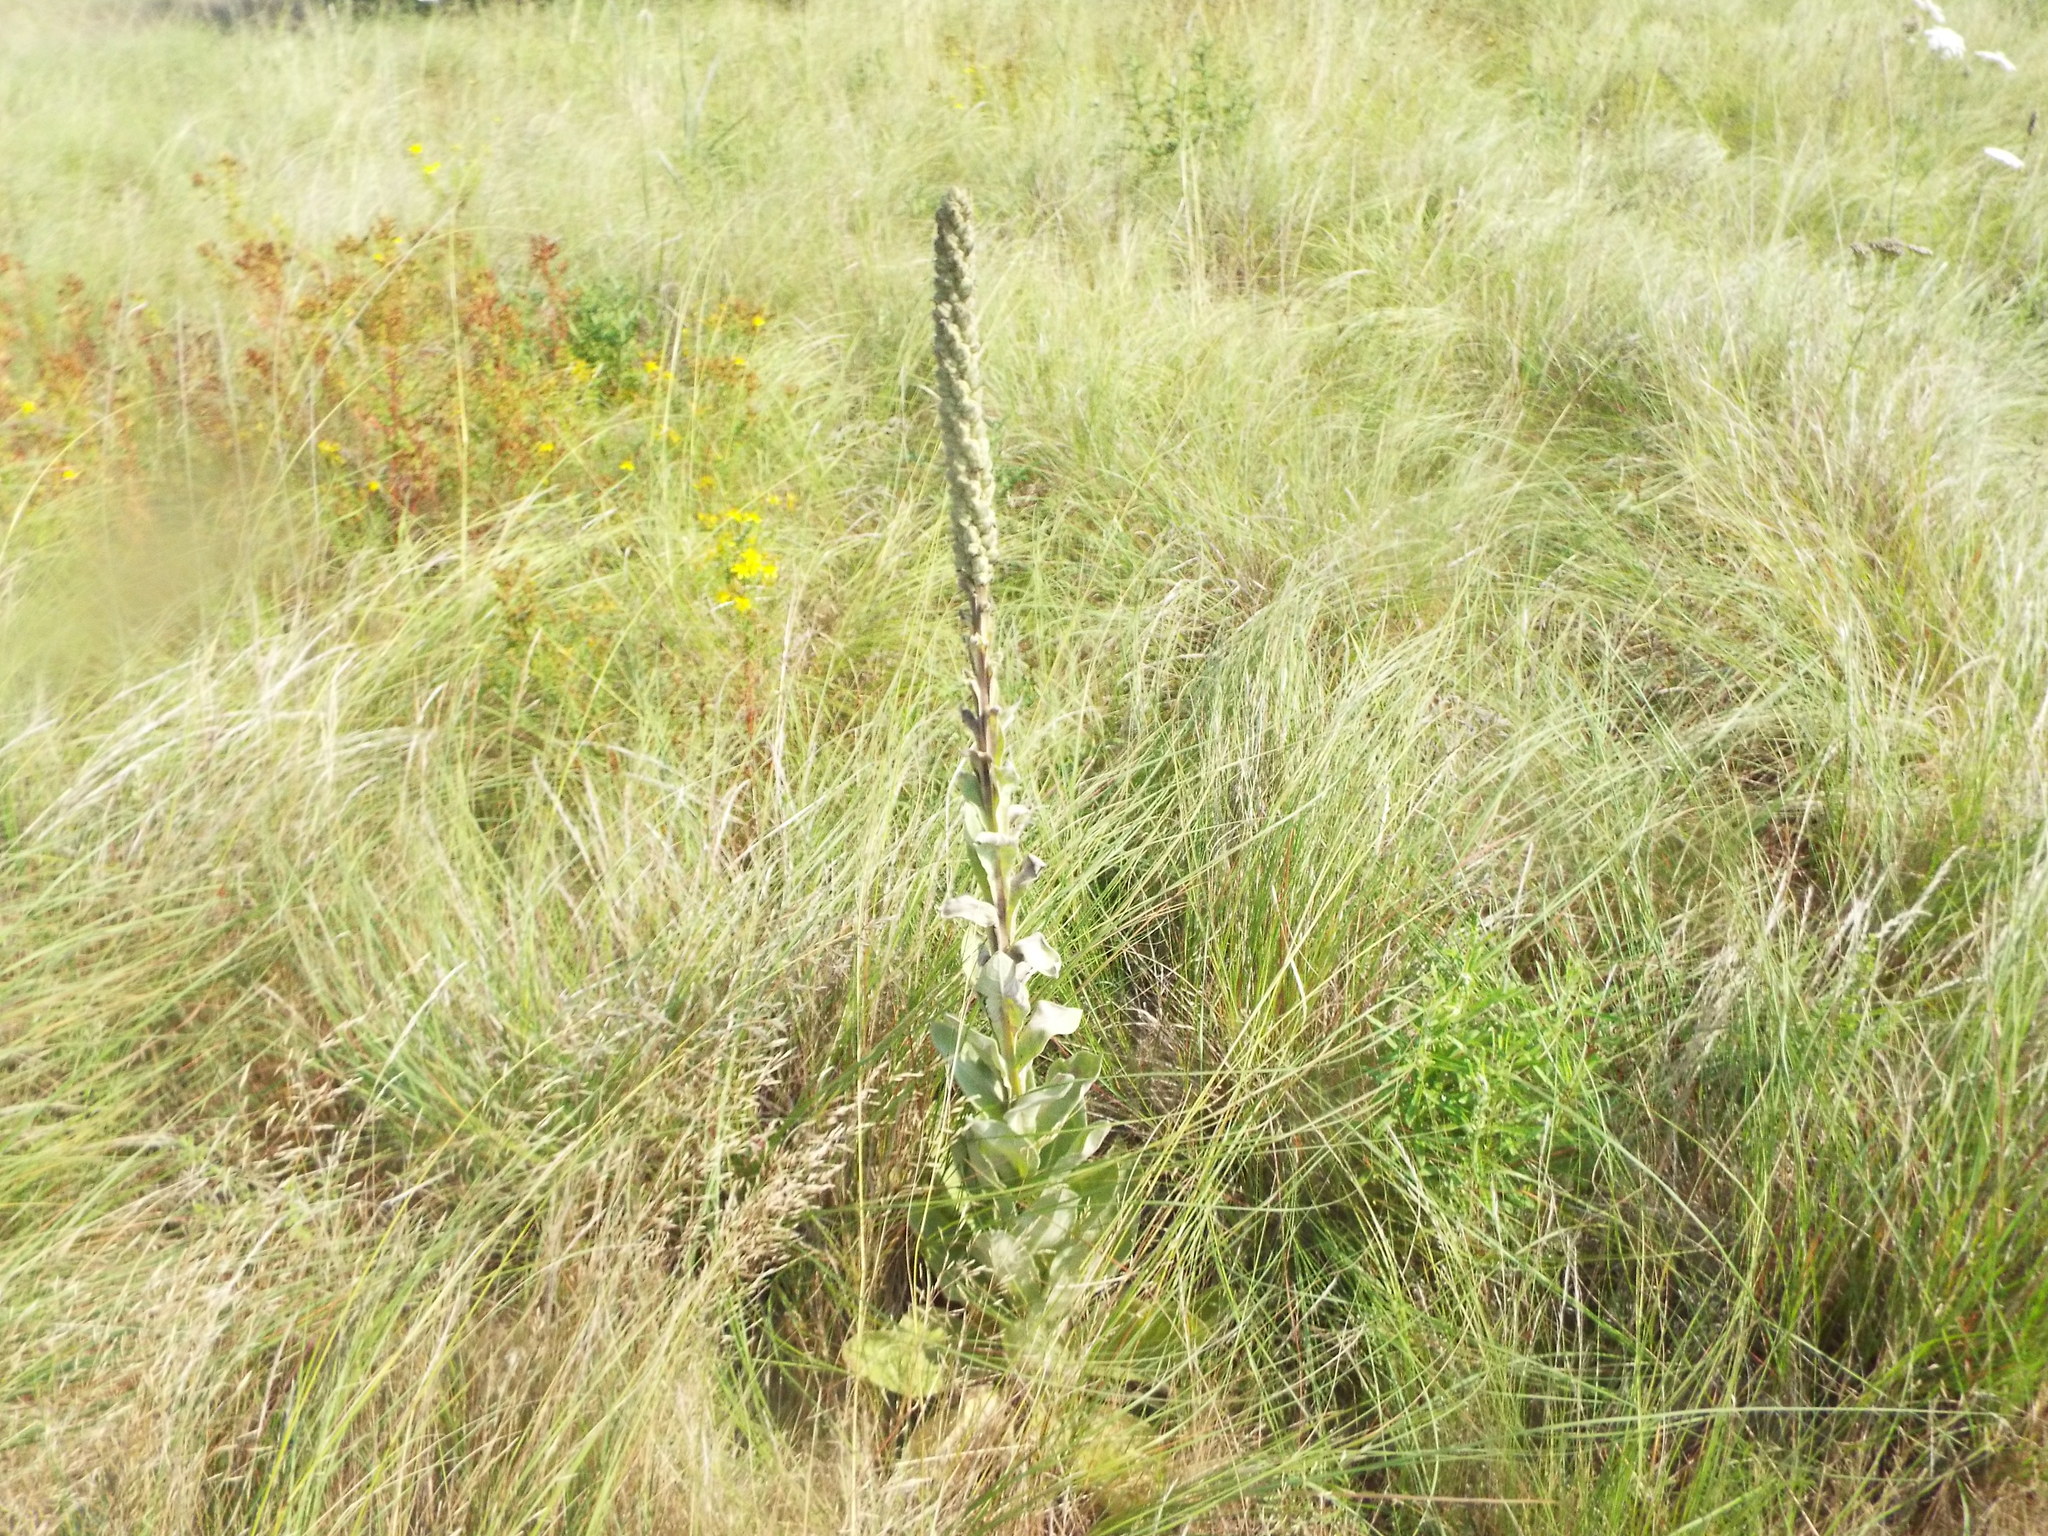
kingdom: Plantae
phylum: Tracheophyta
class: Magnoliopsida
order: Lamiales
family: Scrophulariaceae
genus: Verbascum
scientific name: Verbascum thapsus
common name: Common mullein
